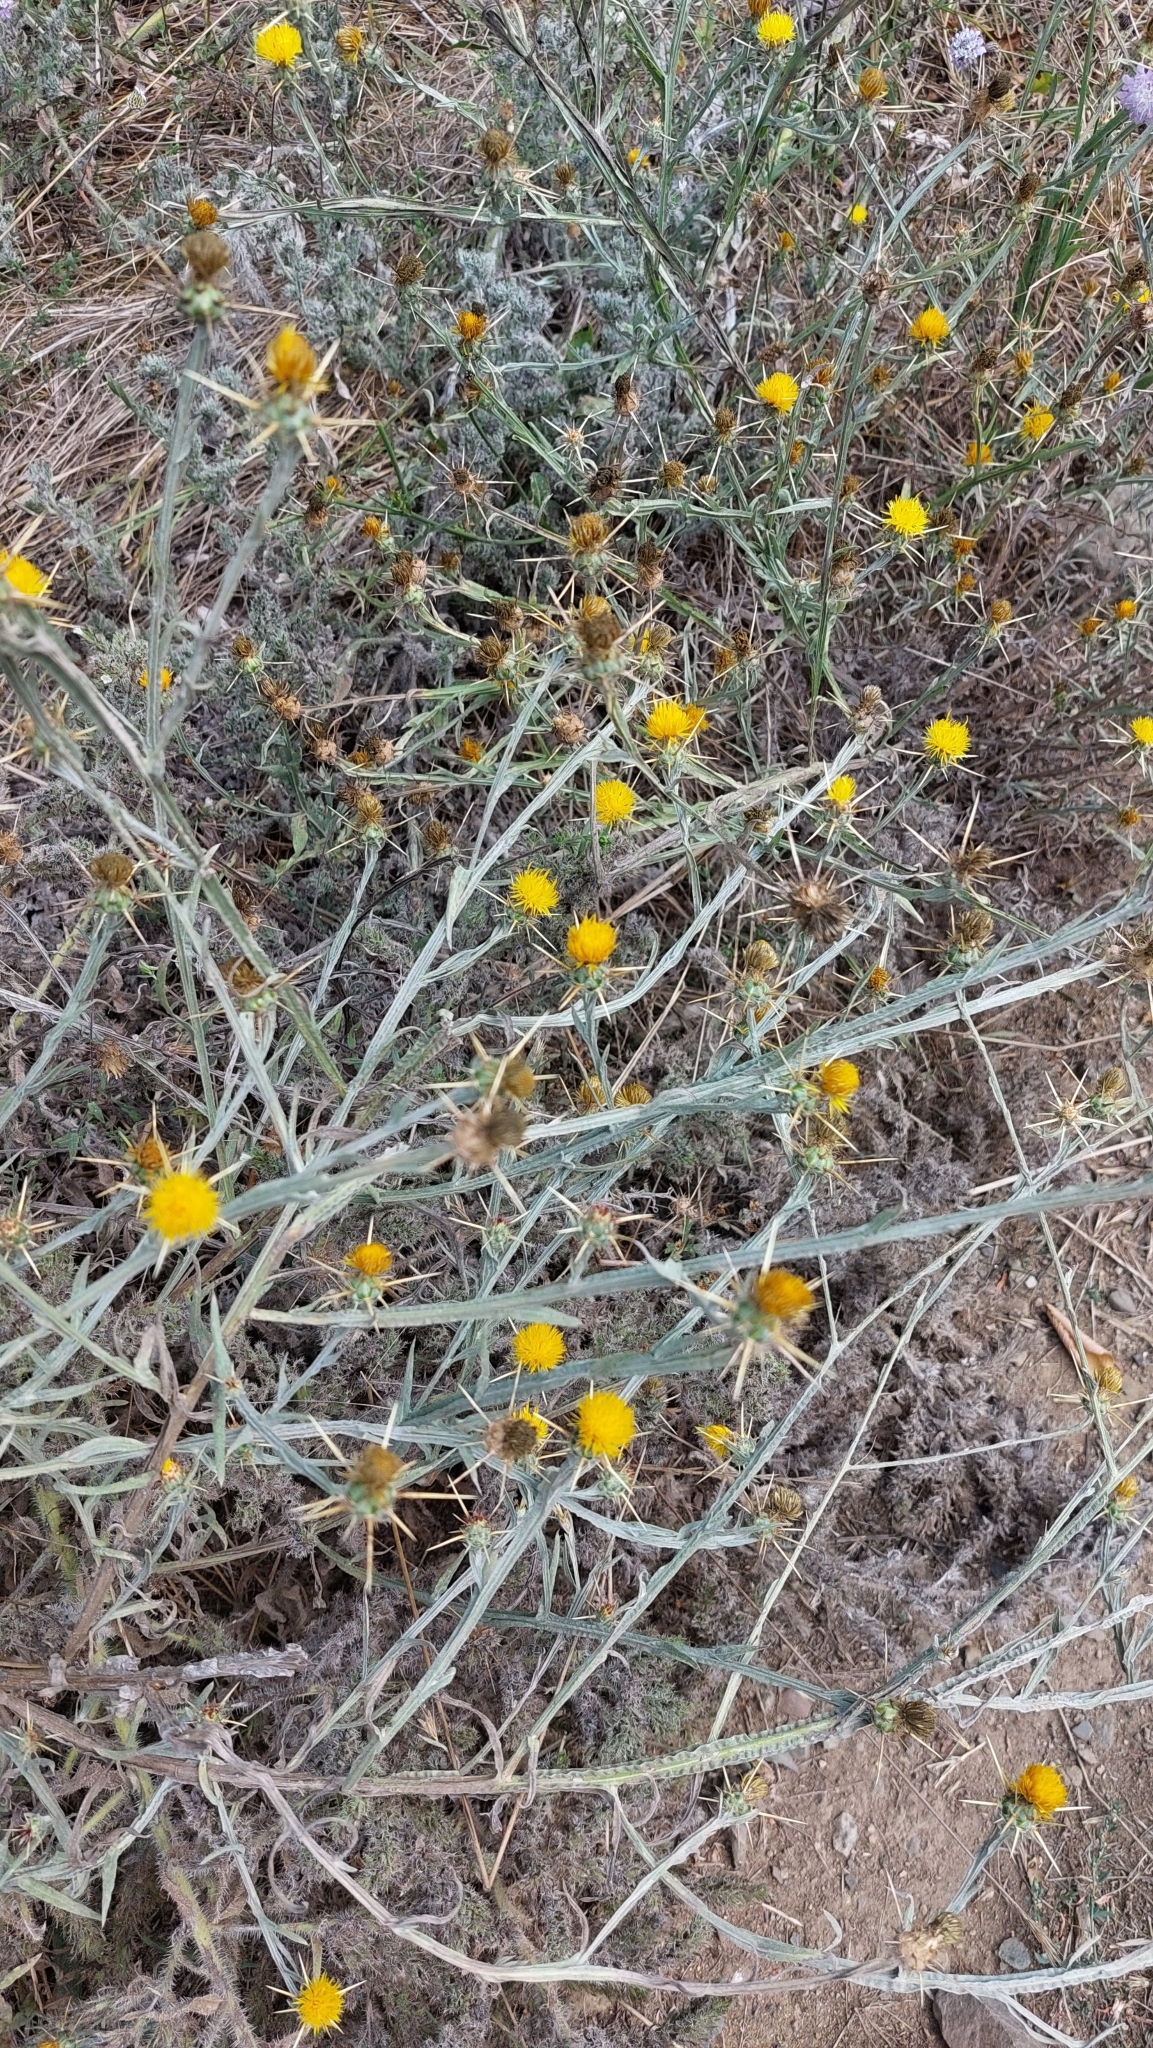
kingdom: Plantae
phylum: Tracheophyta
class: Magnoliopsida
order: Asterales
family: Asteraceae
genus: Centaurea
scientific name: Centaurea solstitialis
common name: Yellow star-thistle
